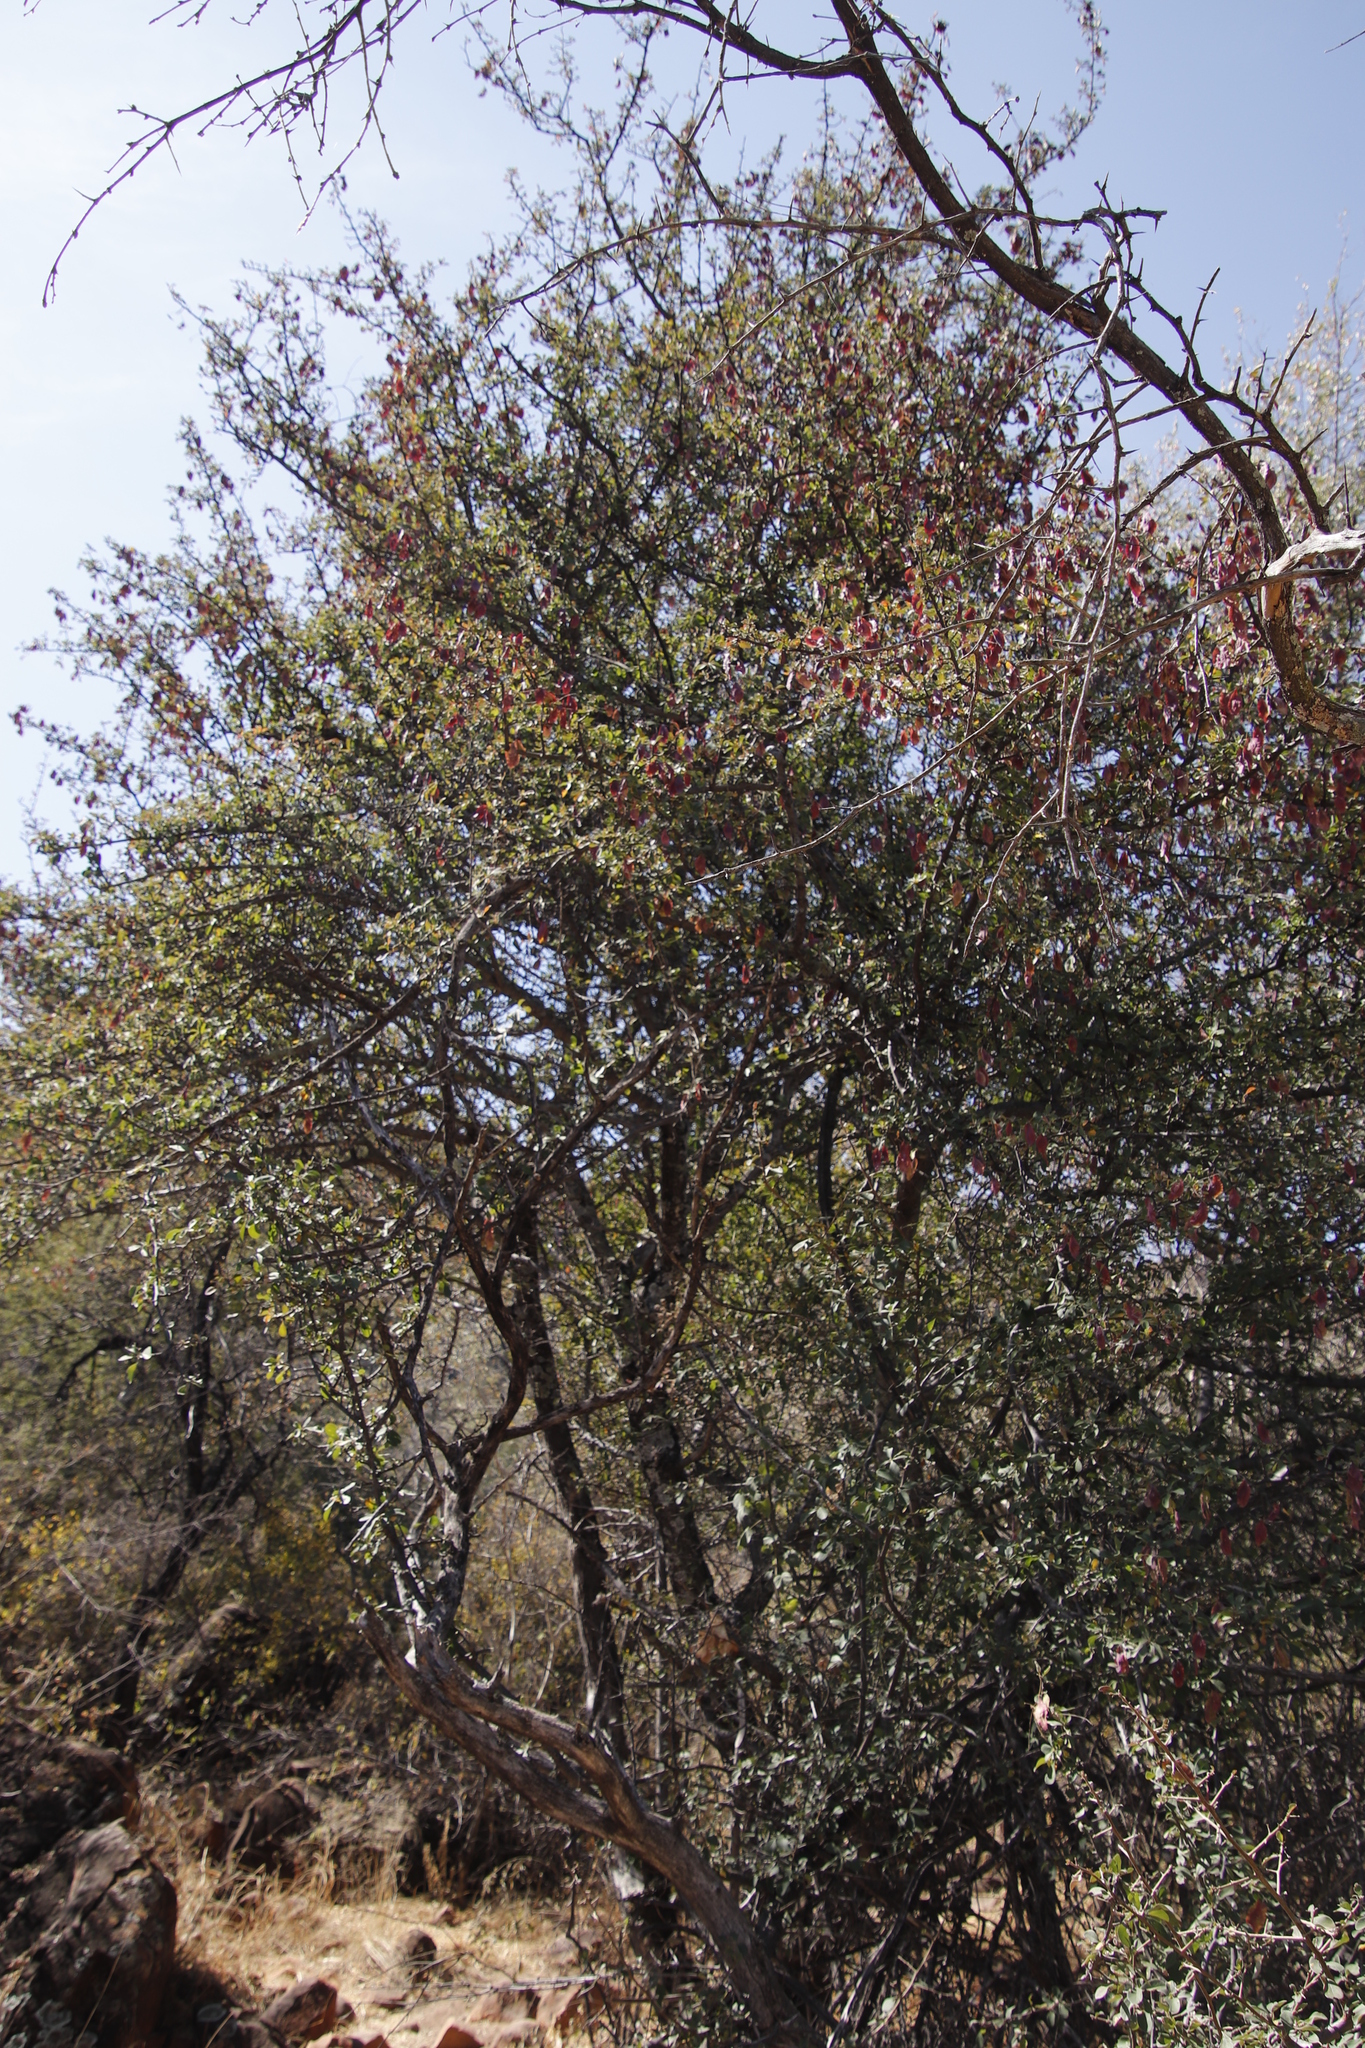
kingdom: Plantae
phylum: Tracheophyta
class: Magnoliopsida
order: Myrtales
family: Combretaceae
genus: Terminalia
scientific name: Terminalia prunioides
